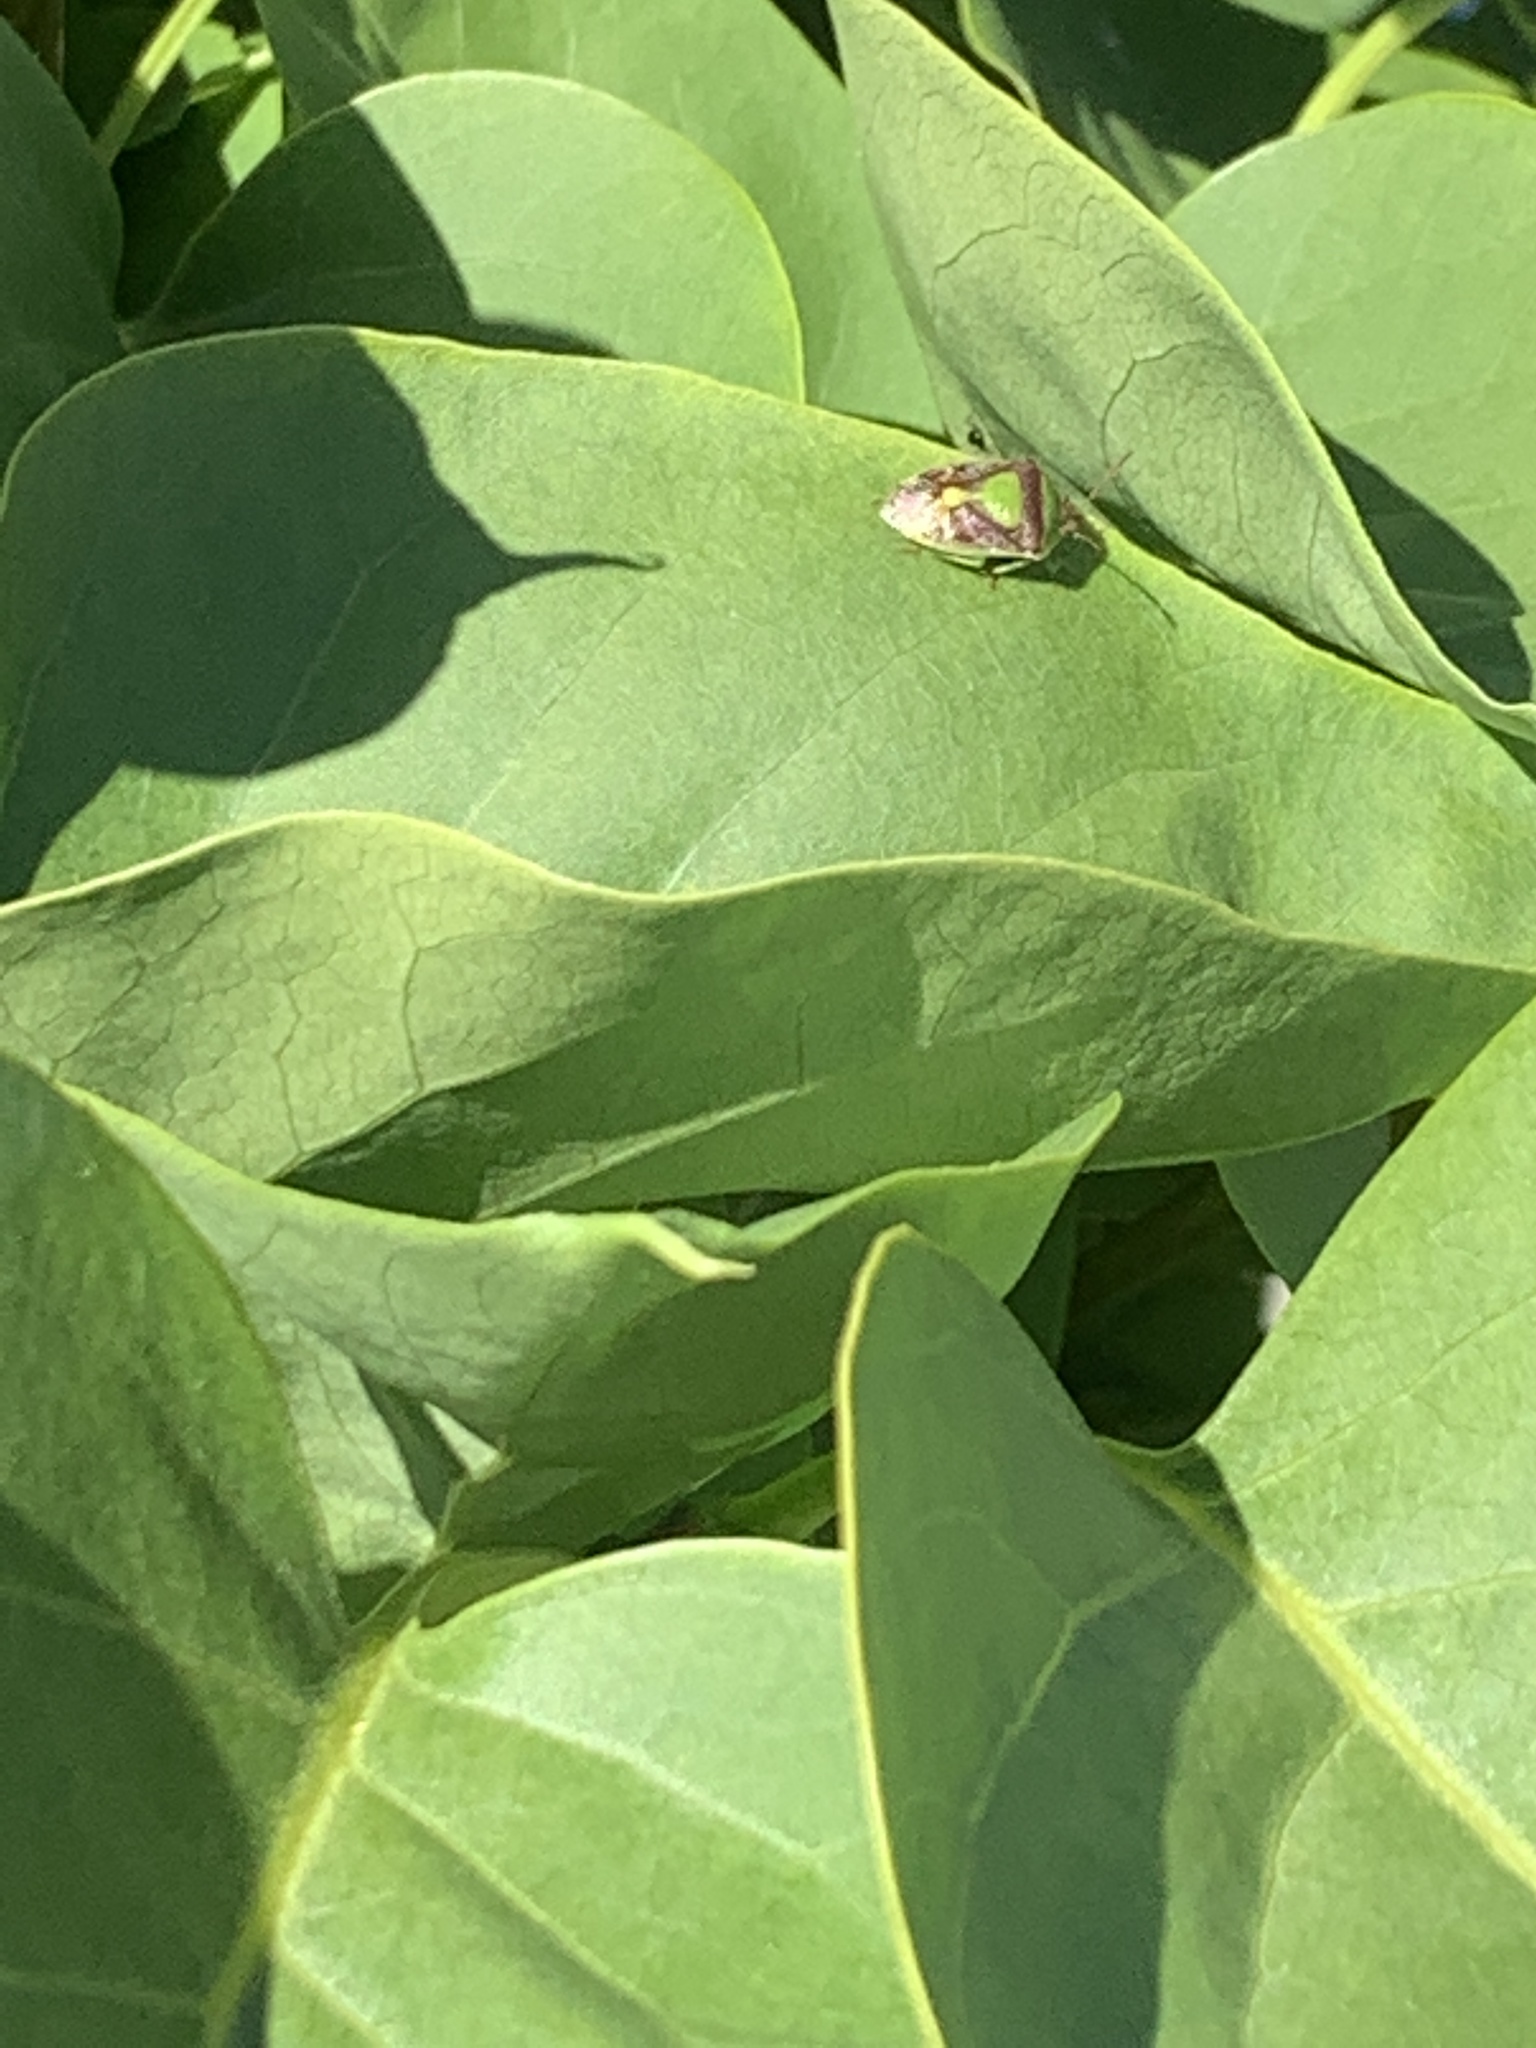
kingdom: Animalia
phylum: Arthropoda
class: Insecta
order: Hemiptera
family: Pentatomidae
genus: Banasa
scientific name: Banasa dimidiata
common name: Green burgundy stink bug
